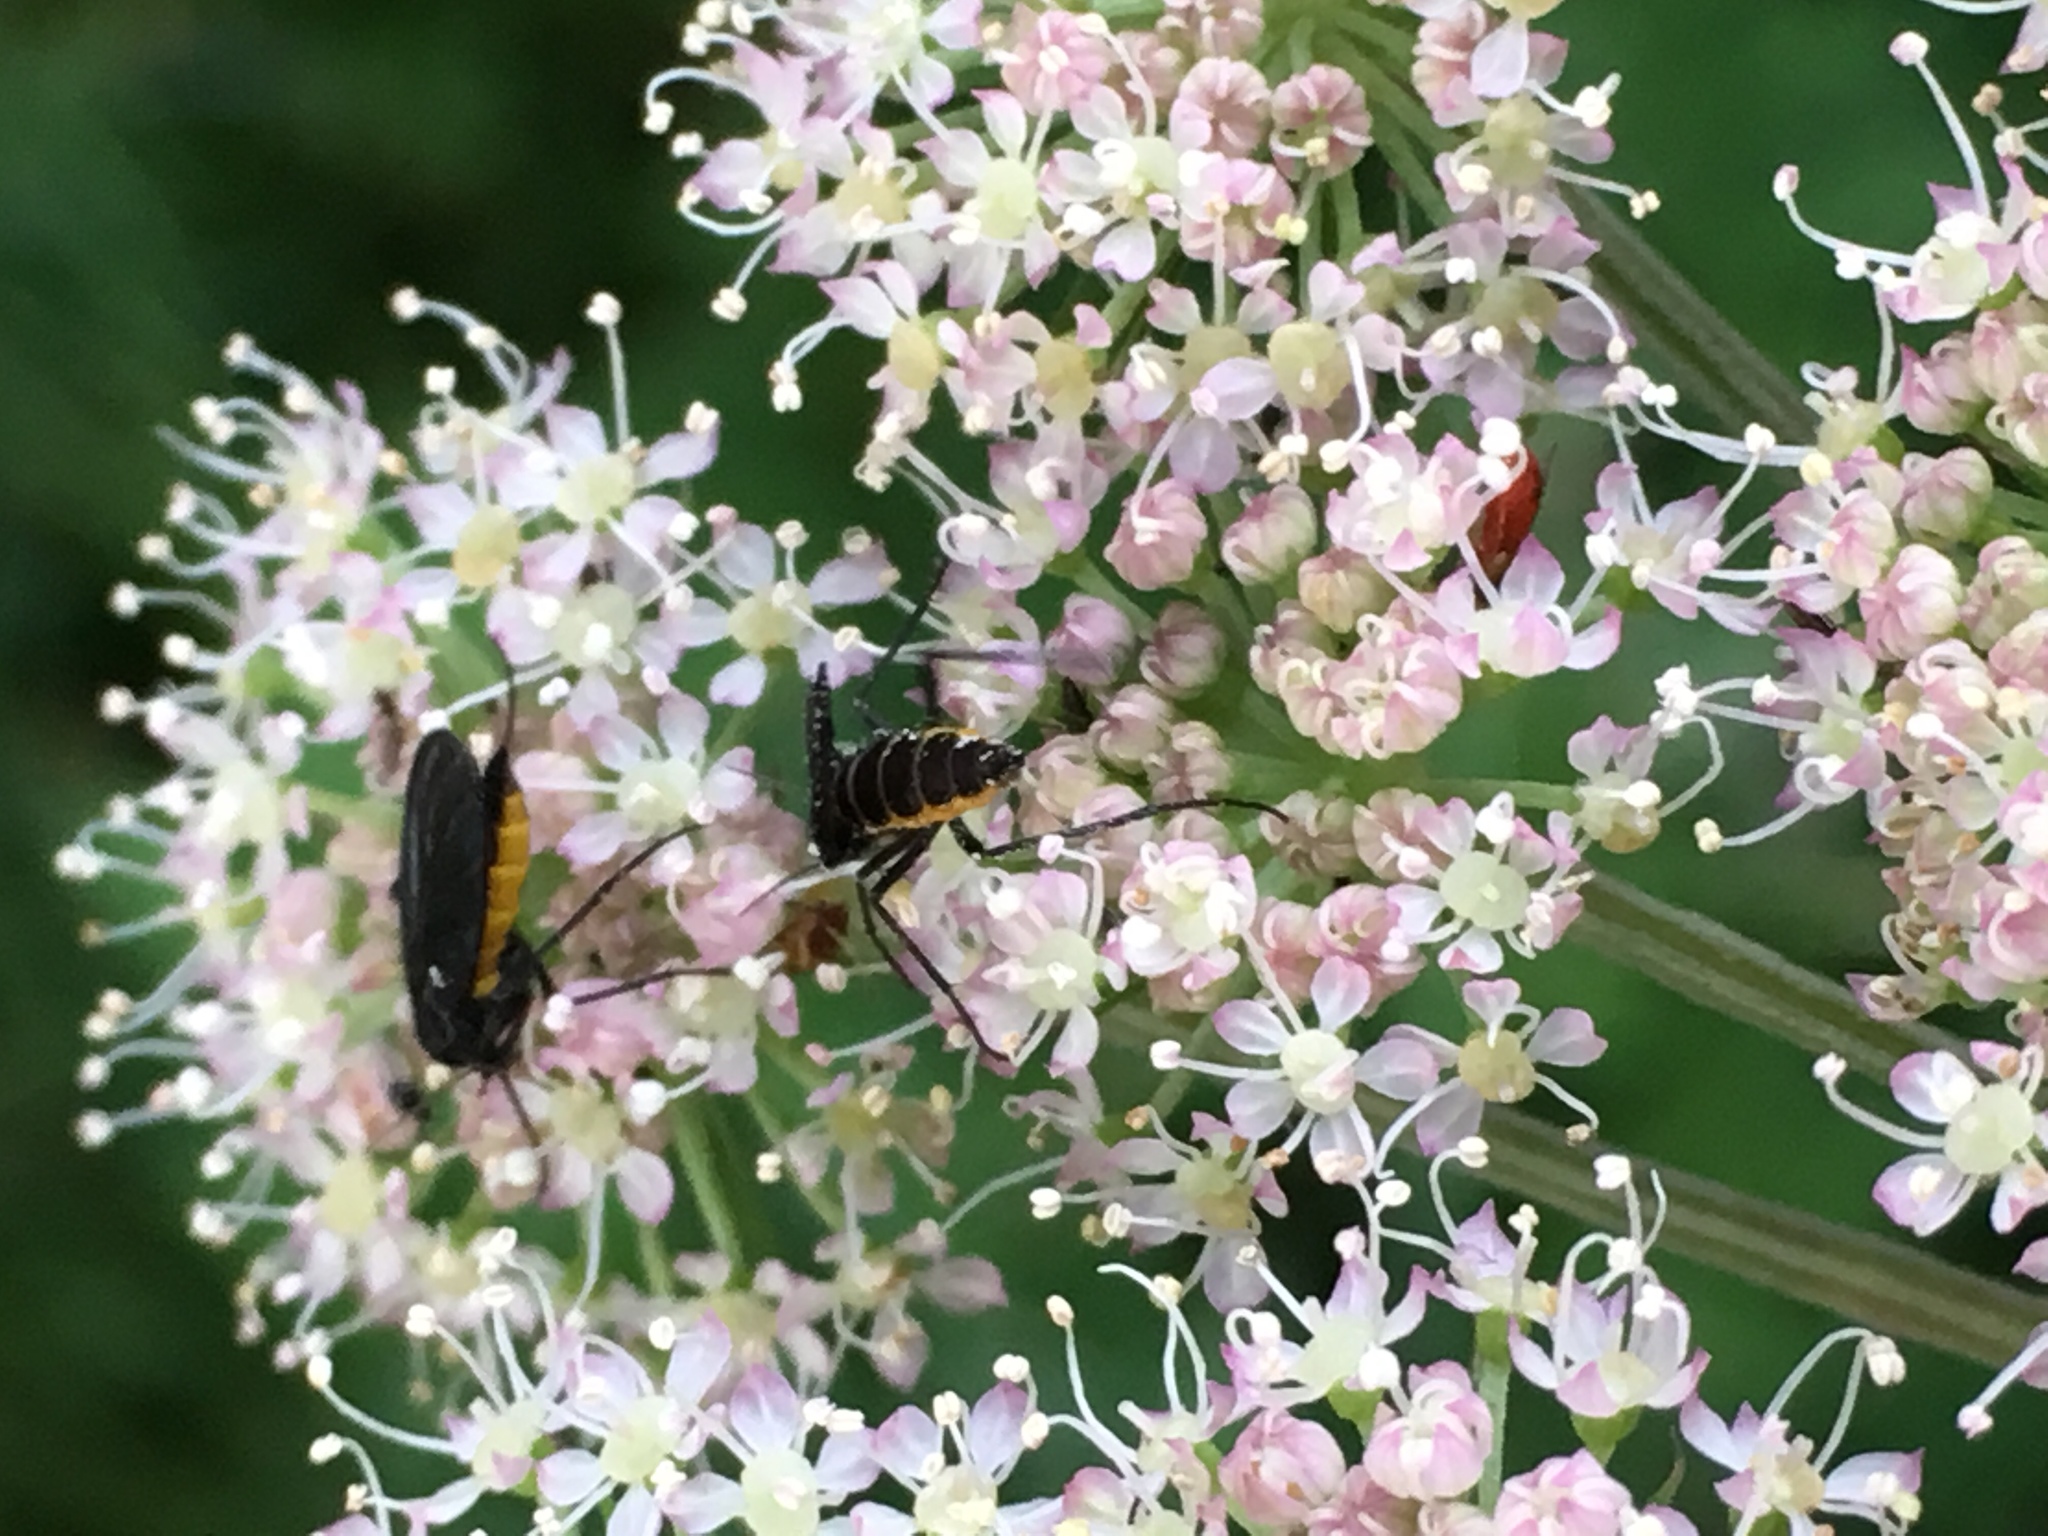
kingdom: Animalia
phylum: Arthropoda
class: Insecta
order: Diptera
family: Sciaridae
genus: Sciara
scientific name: Sciara hemerobioides
